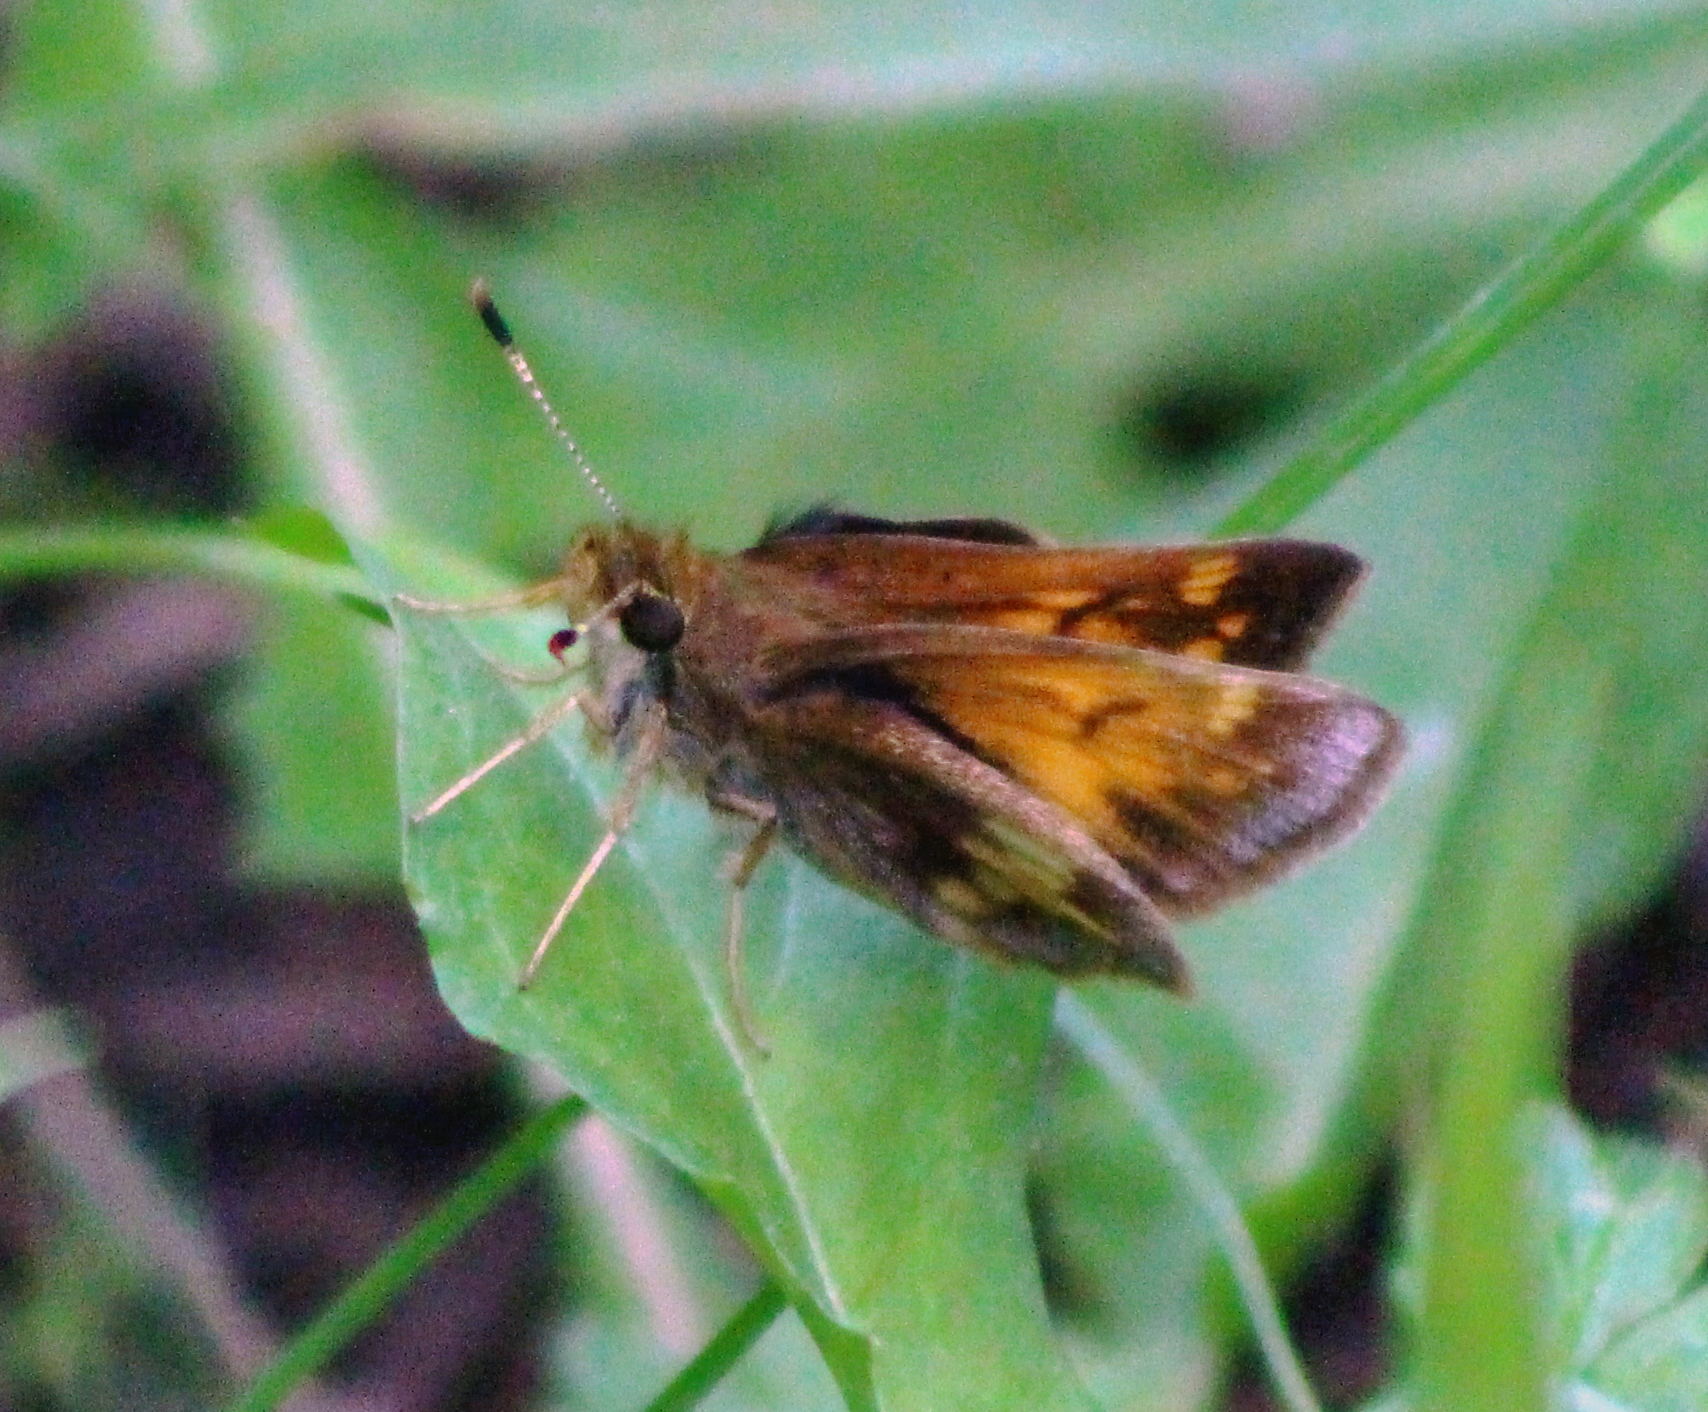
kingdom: Animalia
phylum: Arthropoda
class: Insecta
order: Lepidoptera
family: Hesperiidae
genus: Lon
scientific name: Lon hobomok
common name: Hobomok skipper
